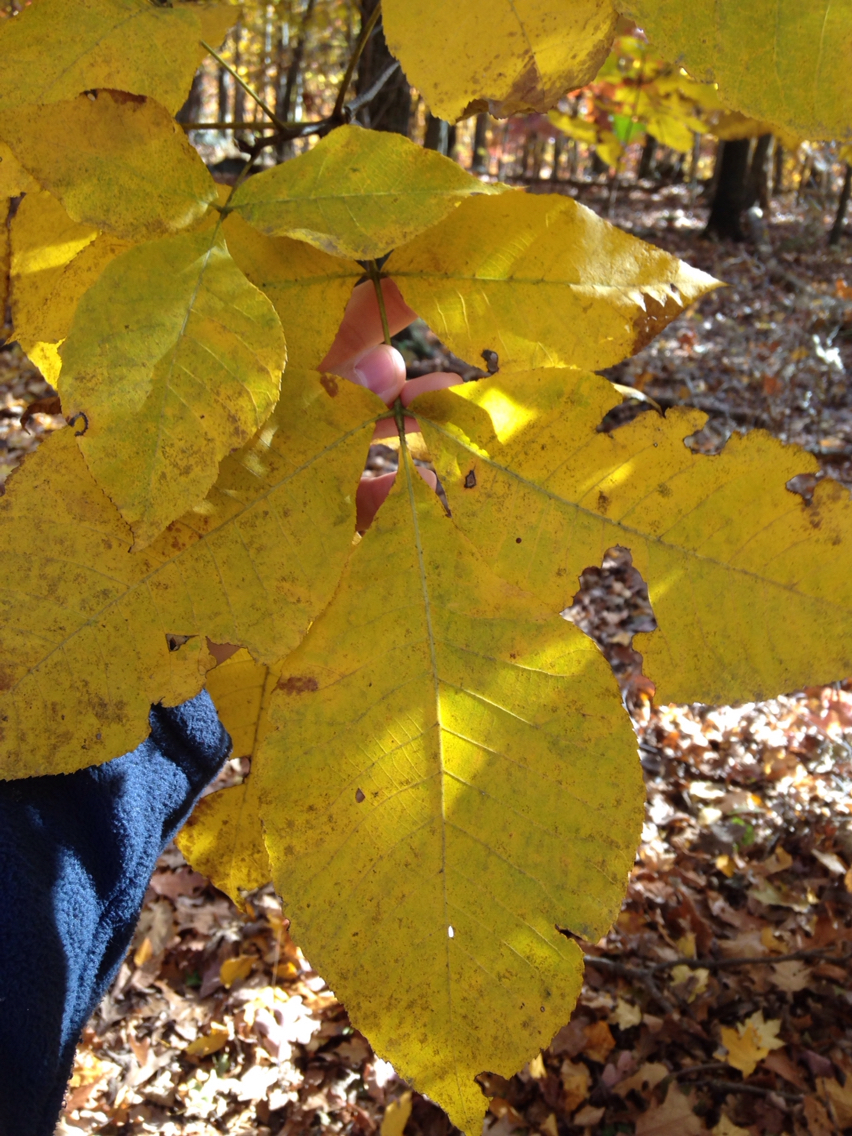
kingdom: Plantae
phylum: Tracheophyta
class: Magnoliopsida
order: Fagales
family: Juglandaceae
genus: Carya
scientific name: Carya ovata
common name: Shagbark hickory
